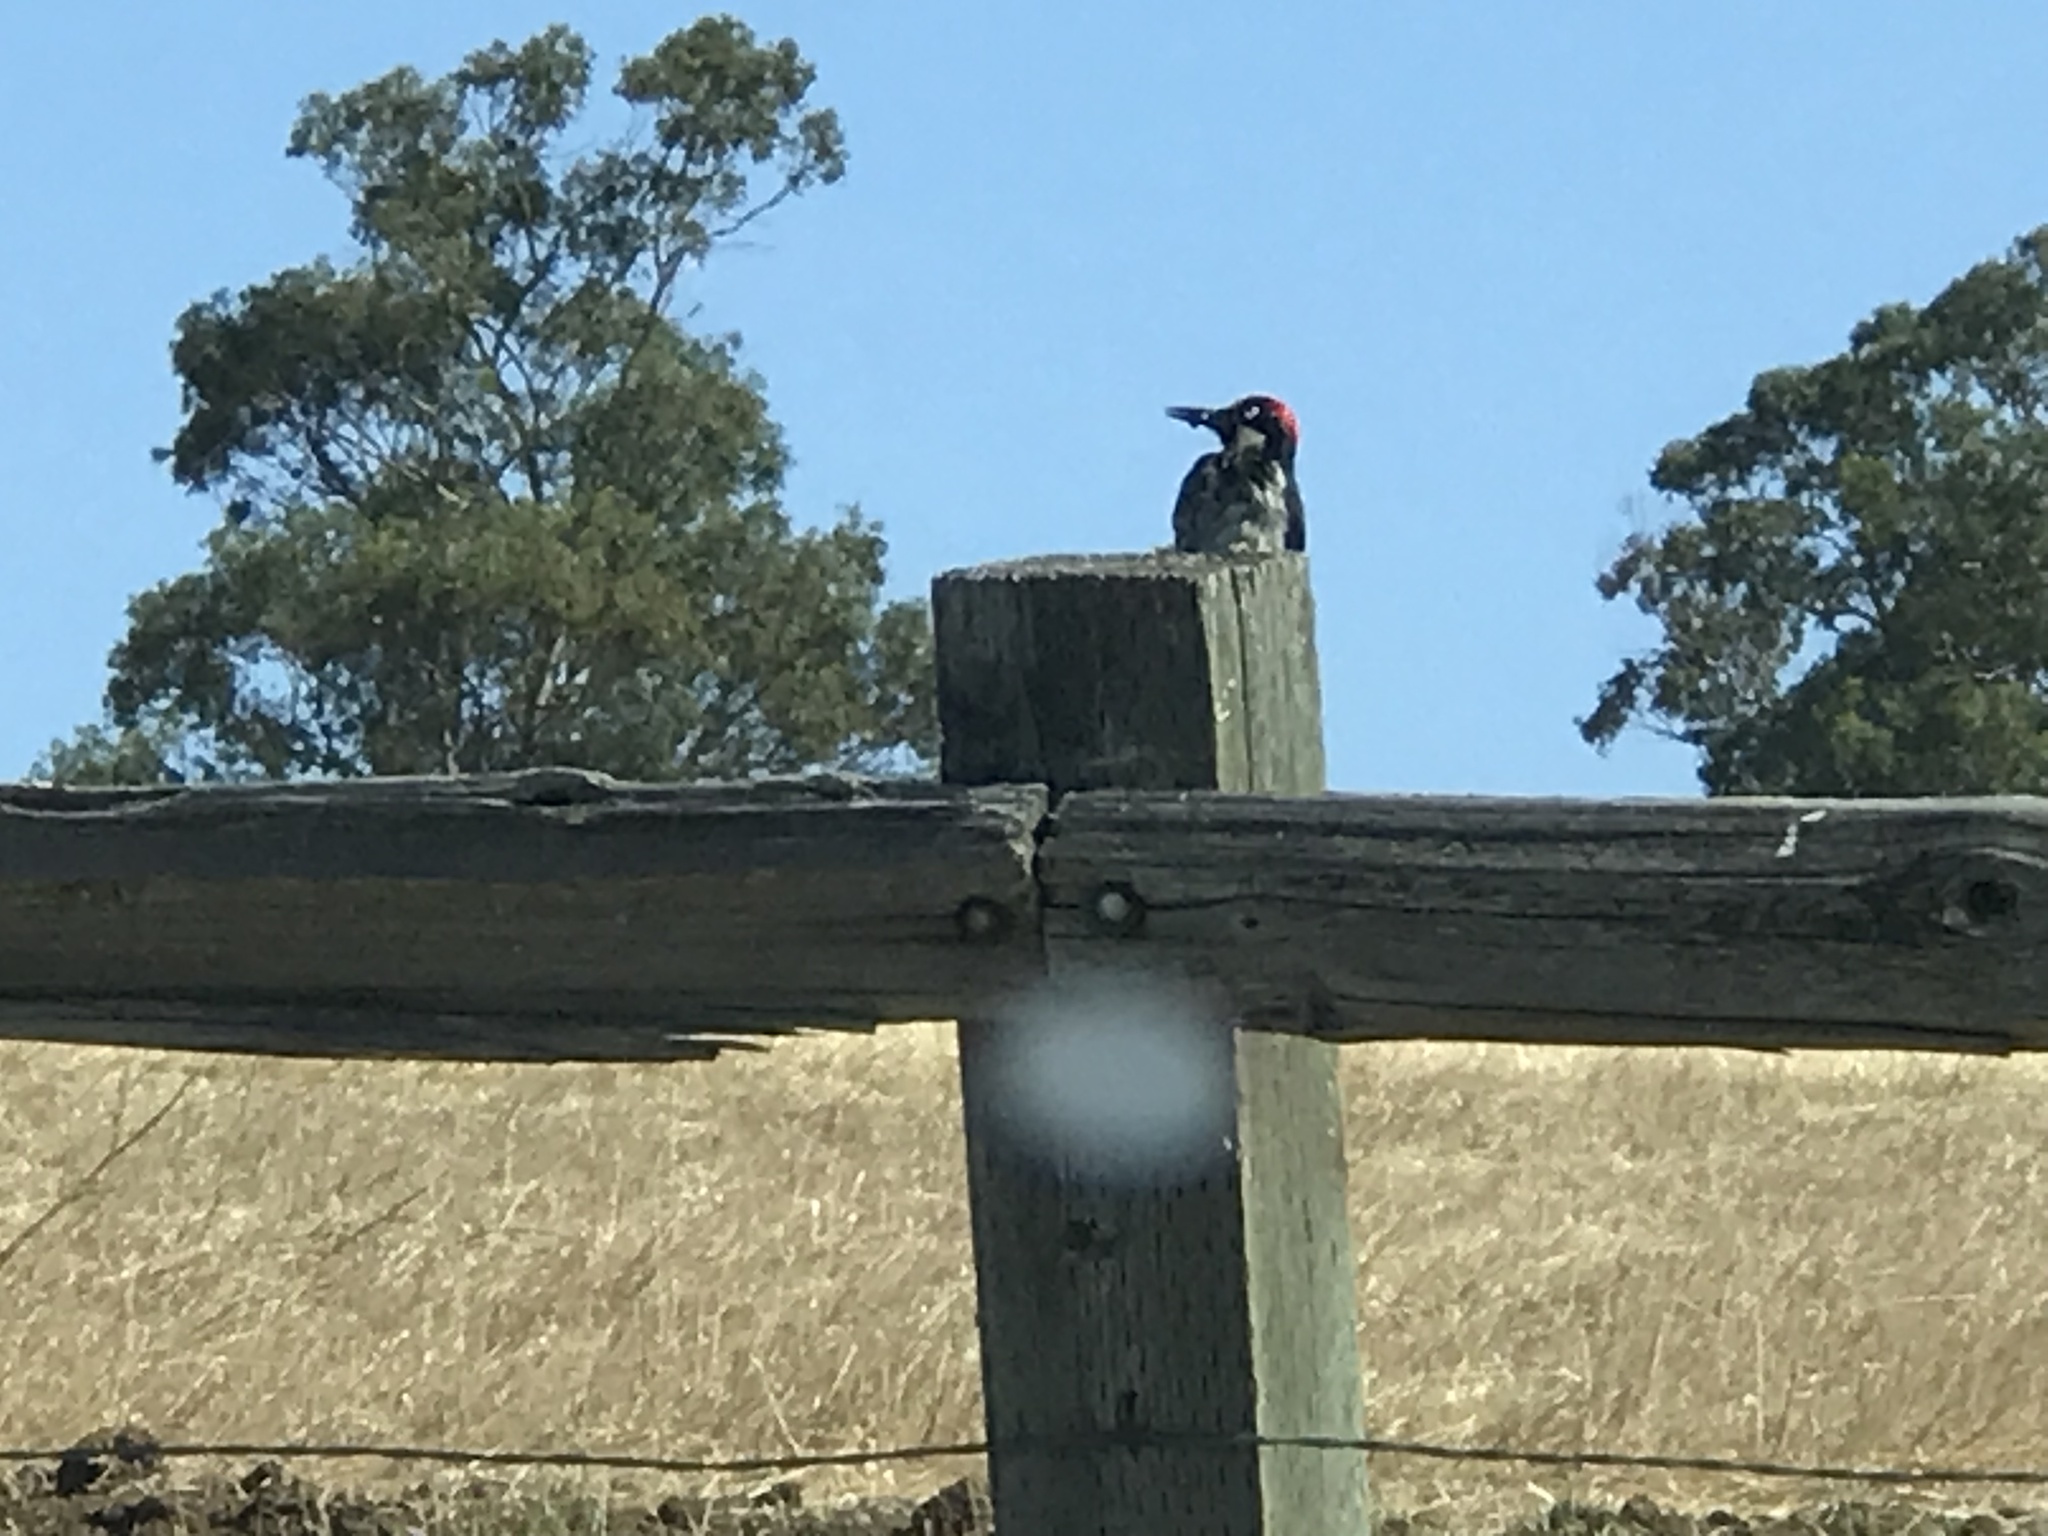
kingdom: Animalia
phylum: Chordata
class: Aves
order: Piciformes
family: Picidae
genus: Melanerpes
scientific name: Melanerpes formicivorus
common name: Acorn woodpecker
